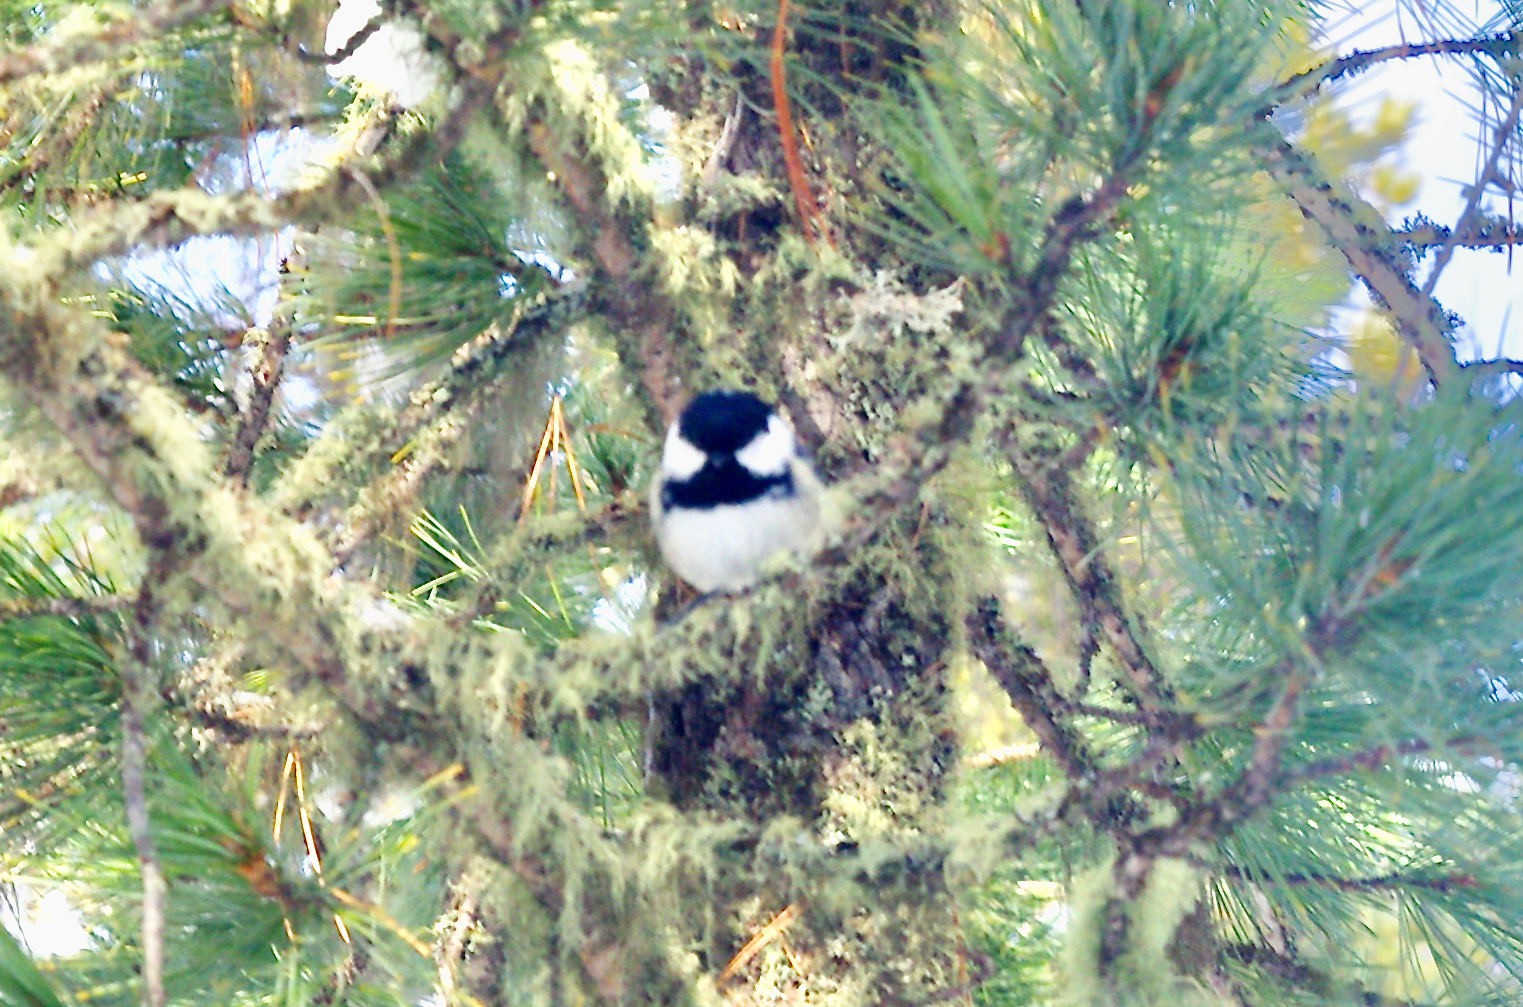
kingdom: Animalia
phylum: Chordata
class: Aves
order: Passeriformes
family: Paridae
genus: Periparus
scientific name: Periparus ater
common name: Coal tit
